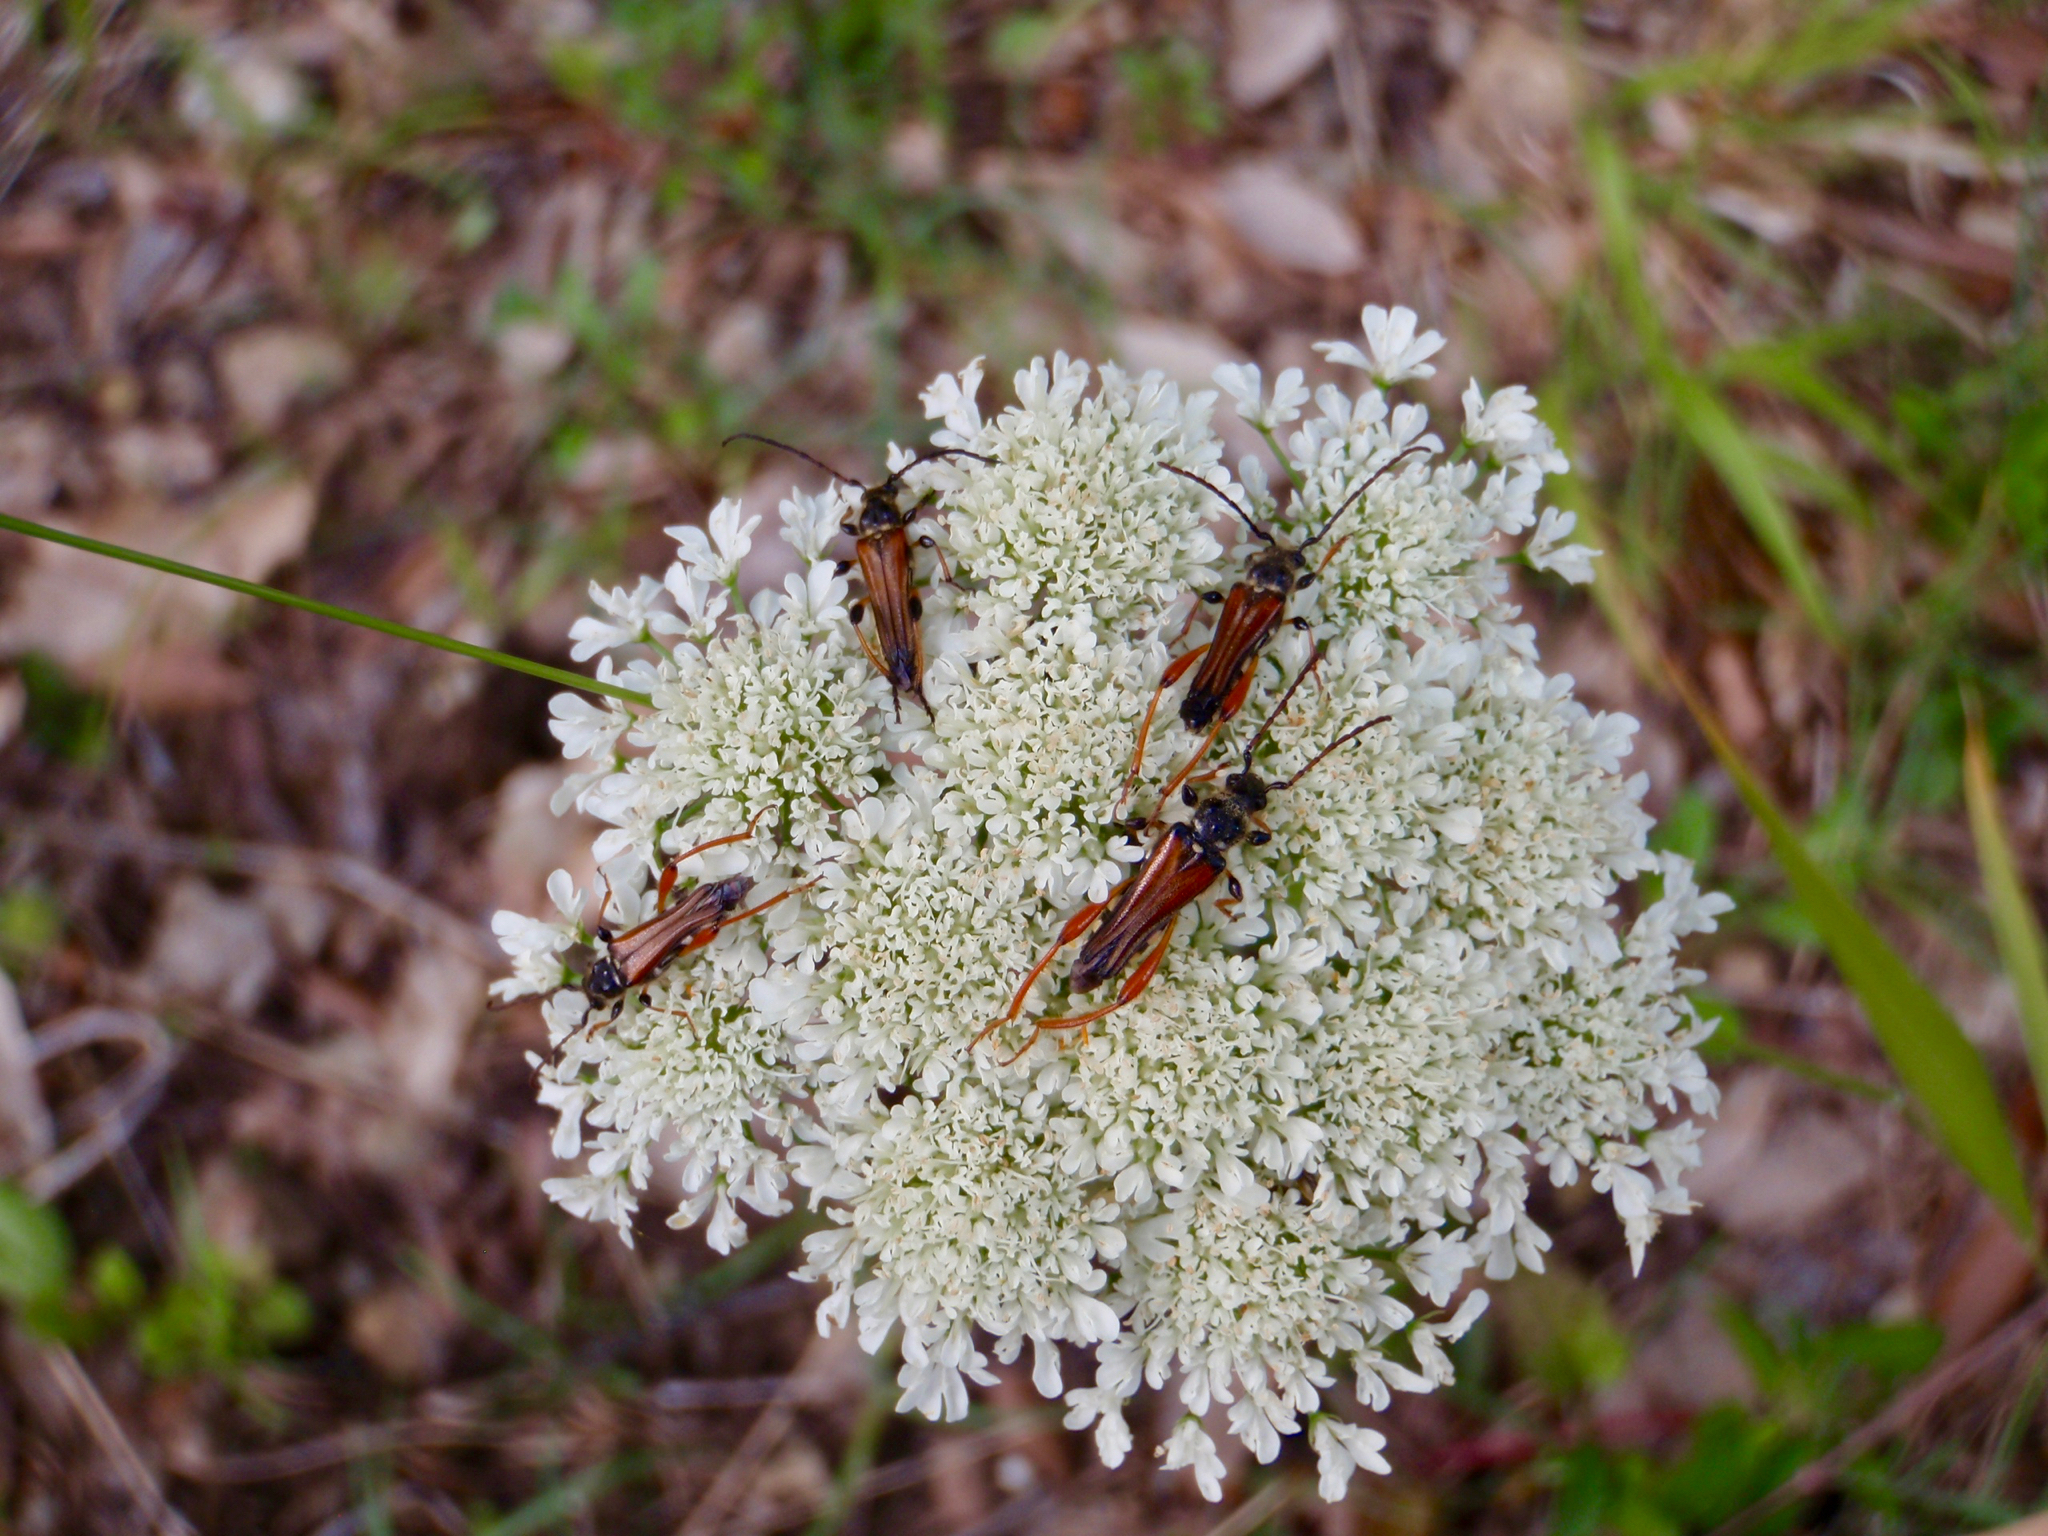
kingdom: Animalia
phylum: Arthropoda
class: Insecta
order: Coleoptera
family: Cerambycidae
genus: Stenopterus
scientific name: Stenopterus rufus
